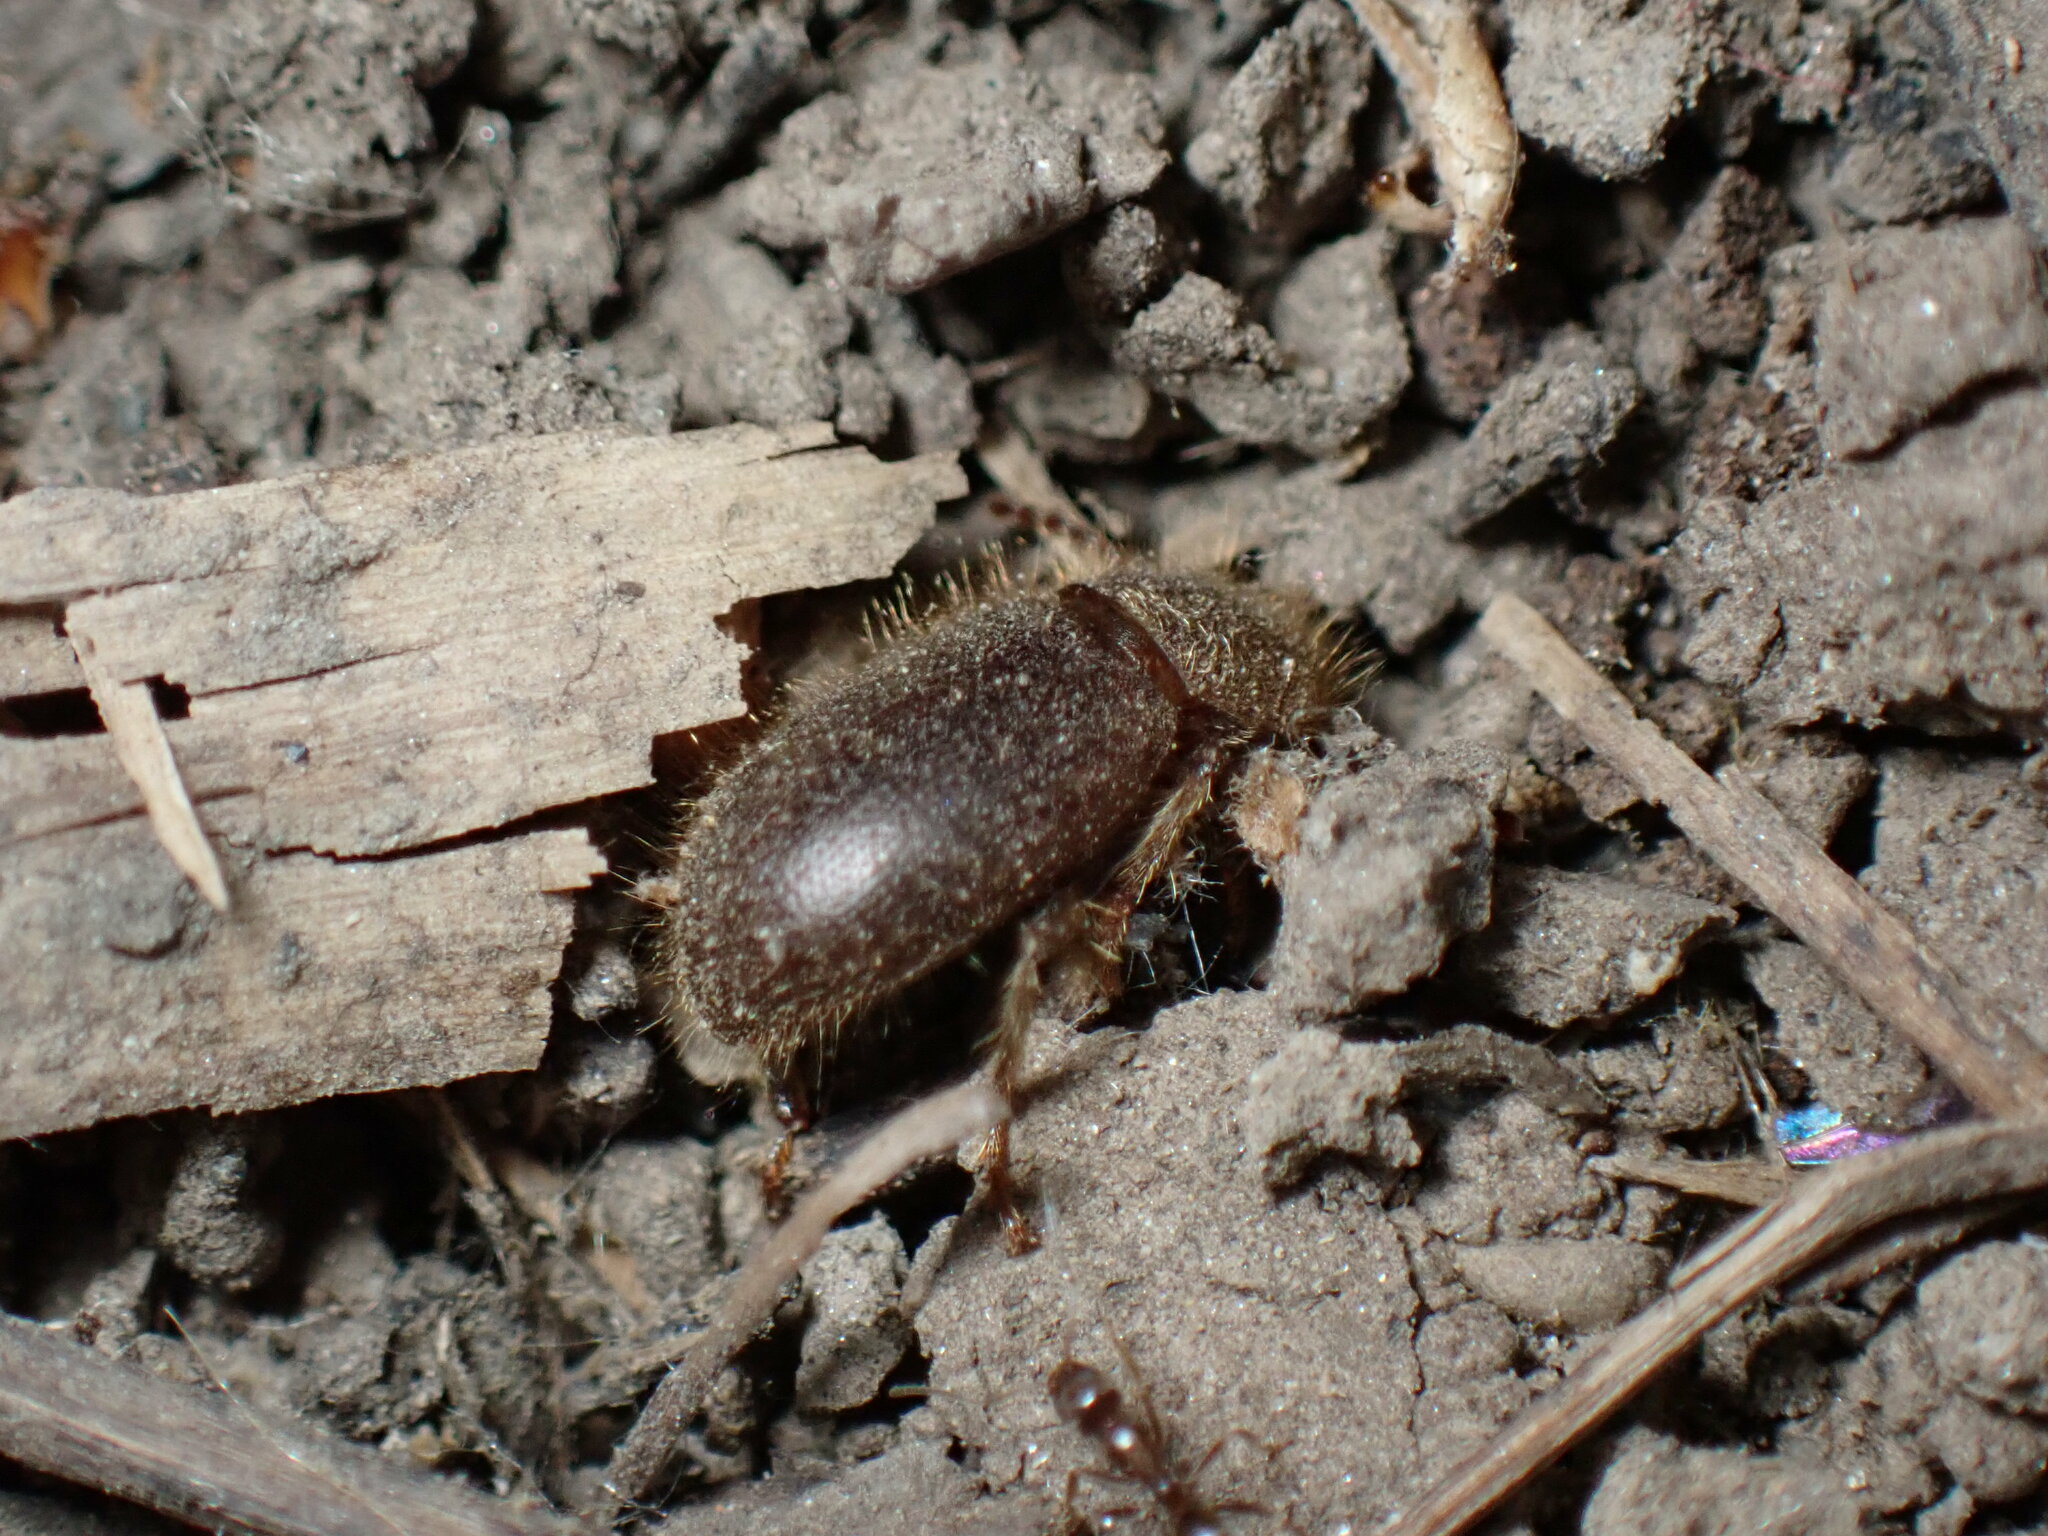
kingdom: Animalia
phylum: Arthropoda
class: Insecta
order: Coleoptera
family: Tenebrionidae
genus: Eleodes
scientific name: Eleodes littoralis
